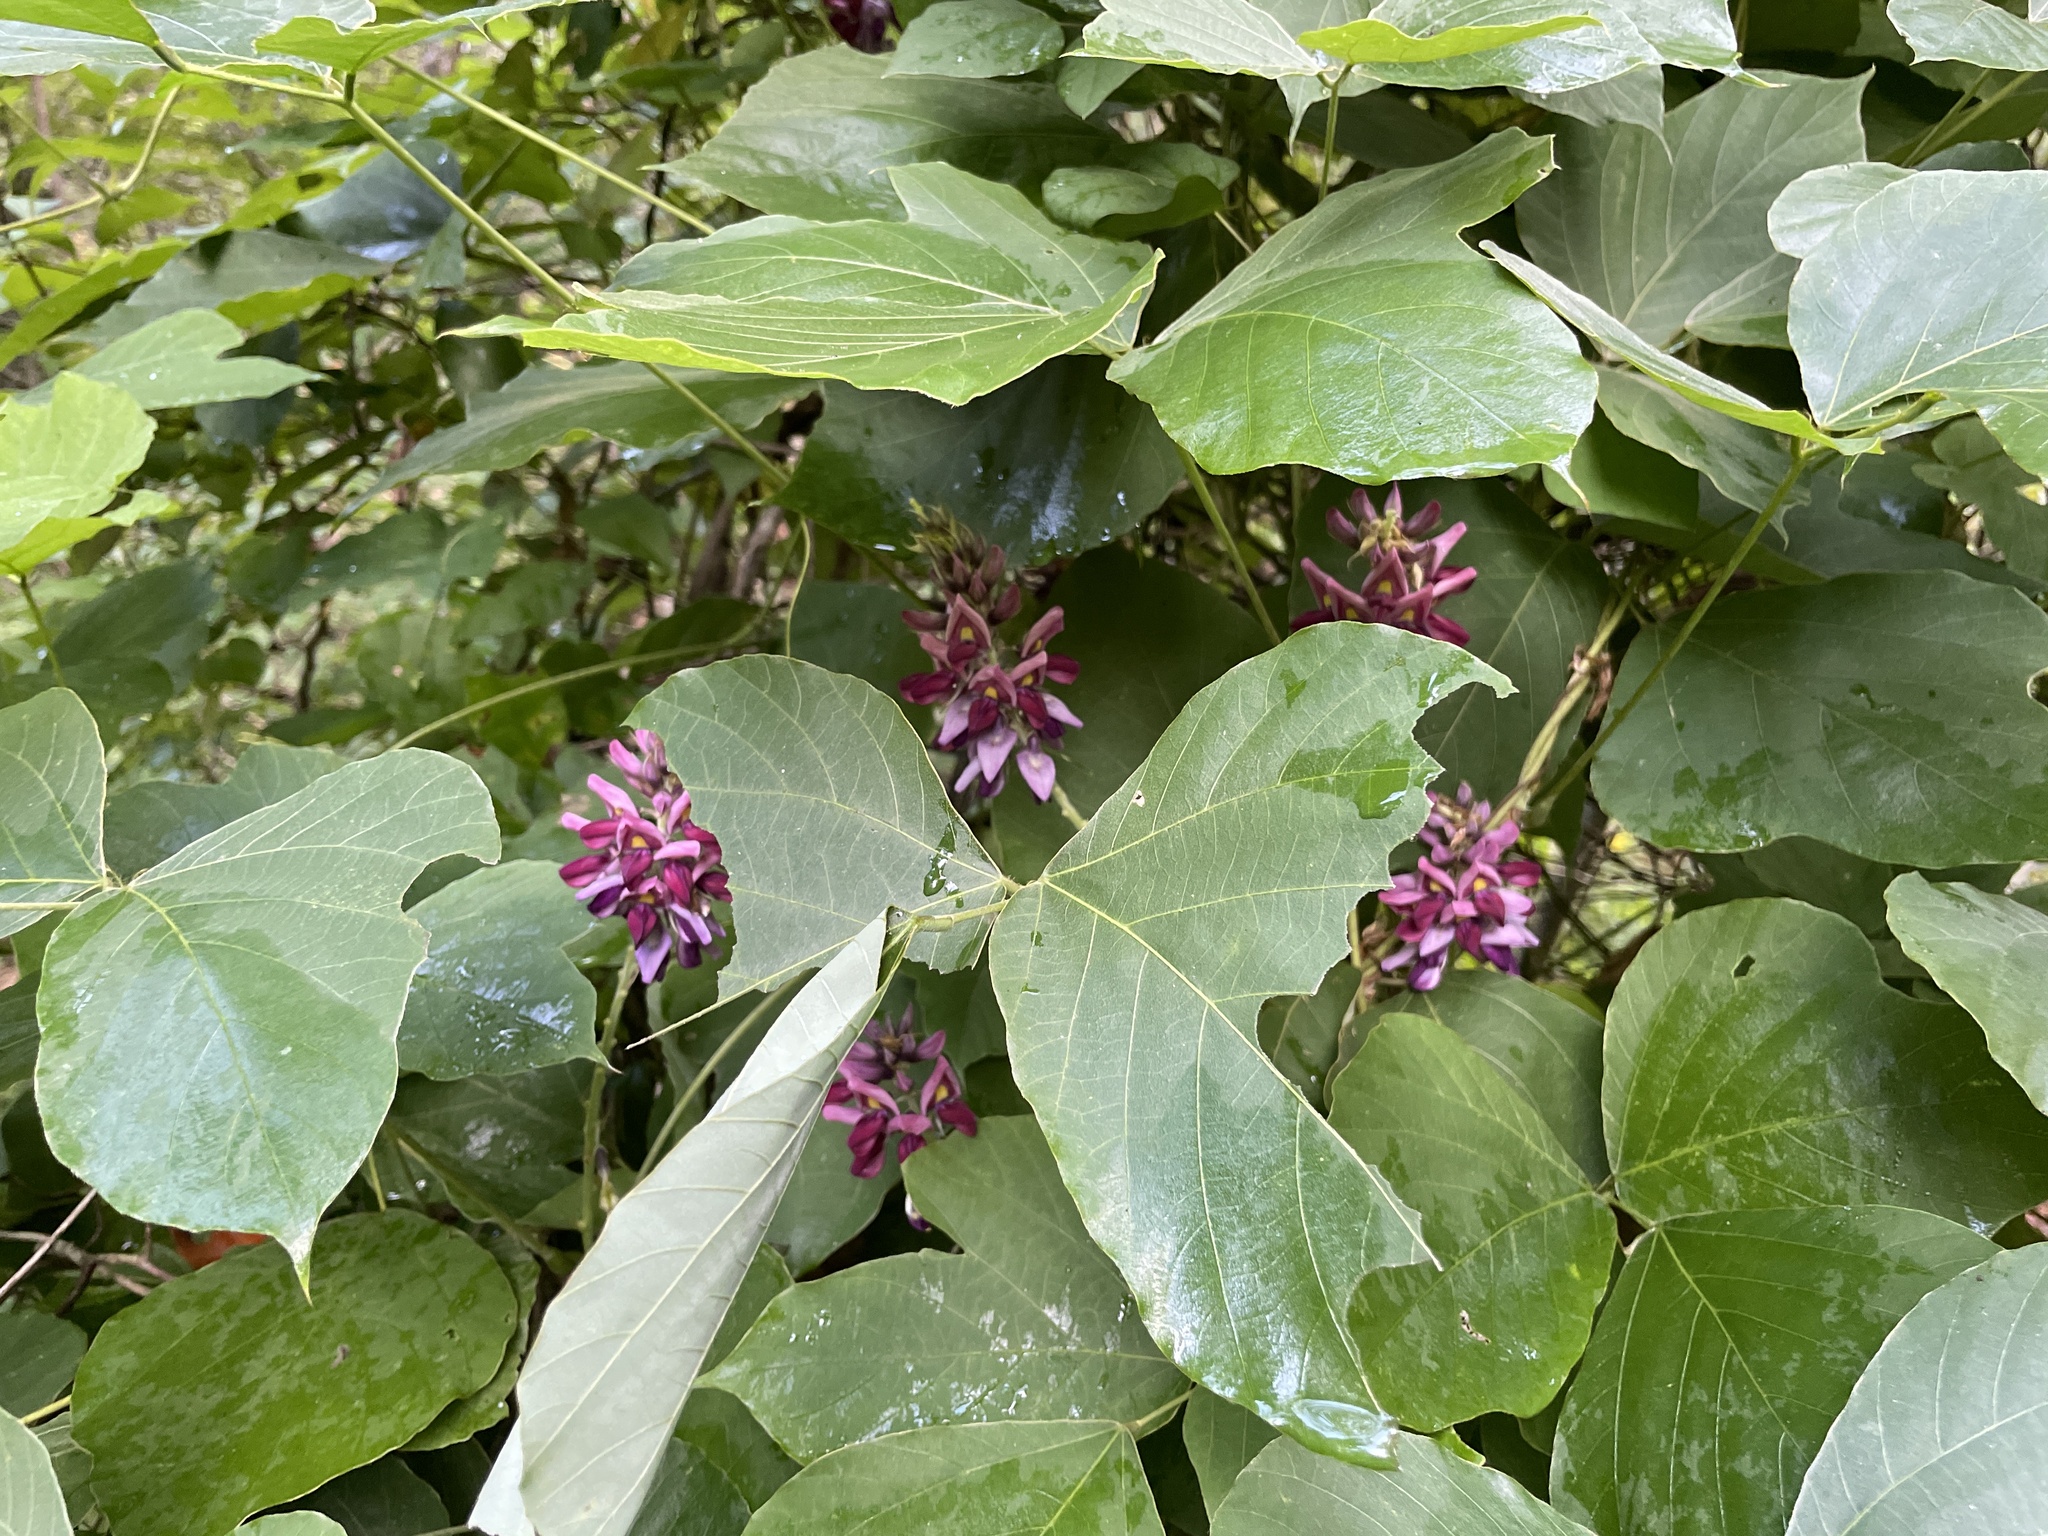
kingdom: Plantae
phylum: Tracheophyta
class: Magnoliopsida
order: Fabales
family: Fabaceae
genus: Pueraria
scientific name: Pueraria montana
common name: Kudzu
